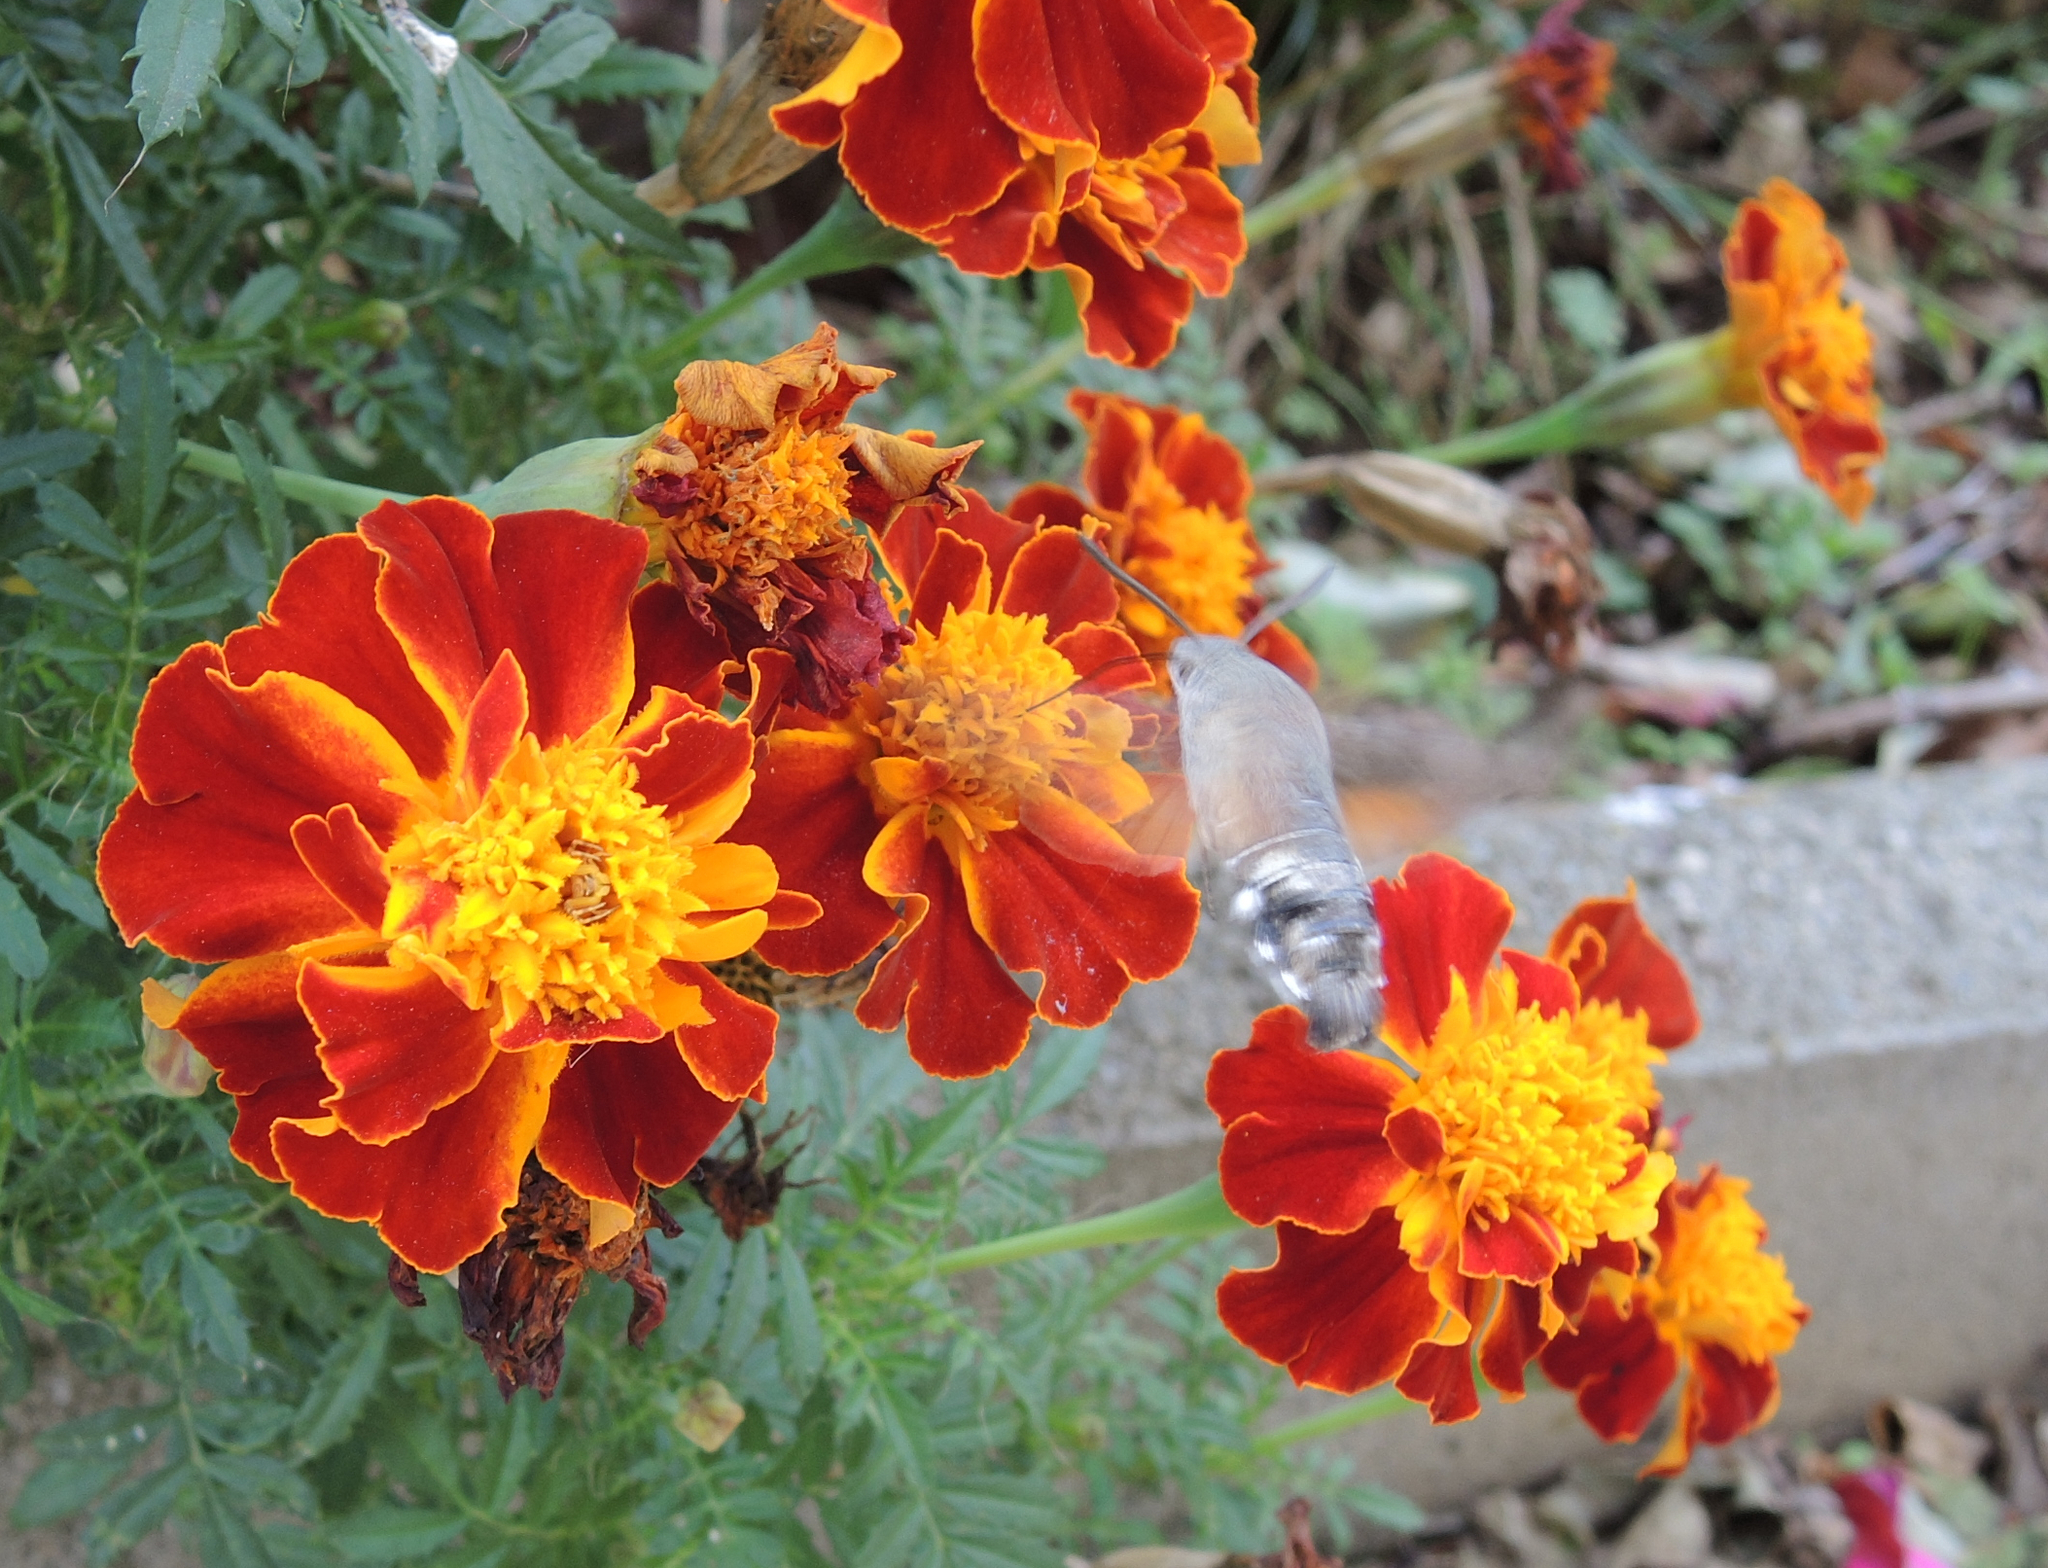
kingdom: Animalia
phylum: Arthropoda
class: Insecta
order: Lepidoptera
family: Sphingidae
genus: Macroglossum
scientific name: Macroglossum stellatarum
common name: Humming-bird hawk-moth
